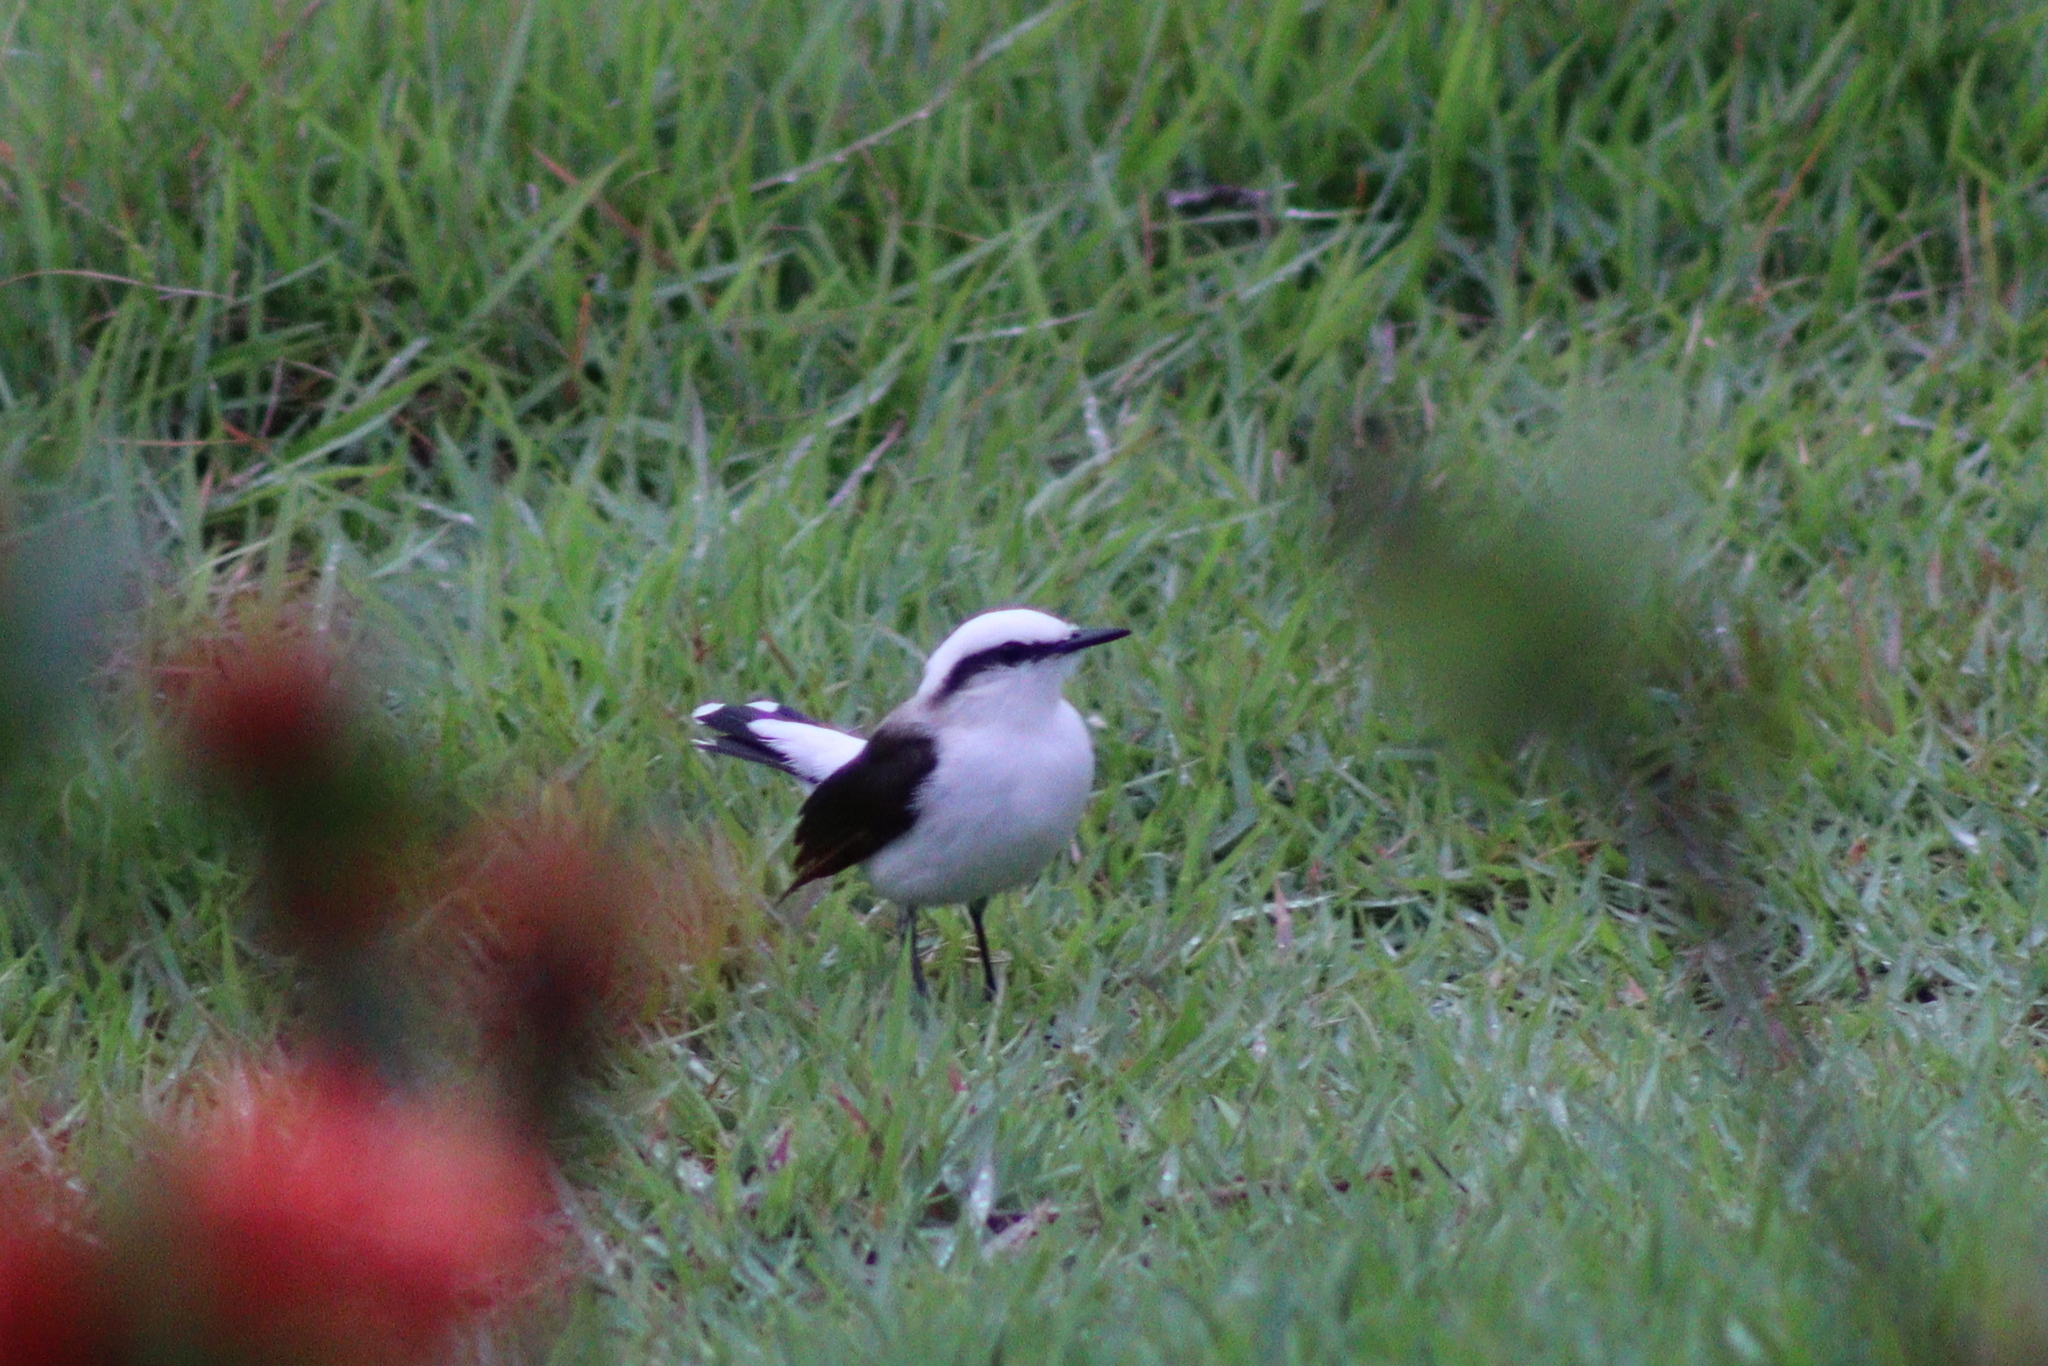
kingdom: Animalia
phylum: Chordata
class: Aves
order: Passeriformes
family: Tyrannidae
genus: Fluvicola
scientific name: Fluvicola nengeta
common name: Masked water tyrant
